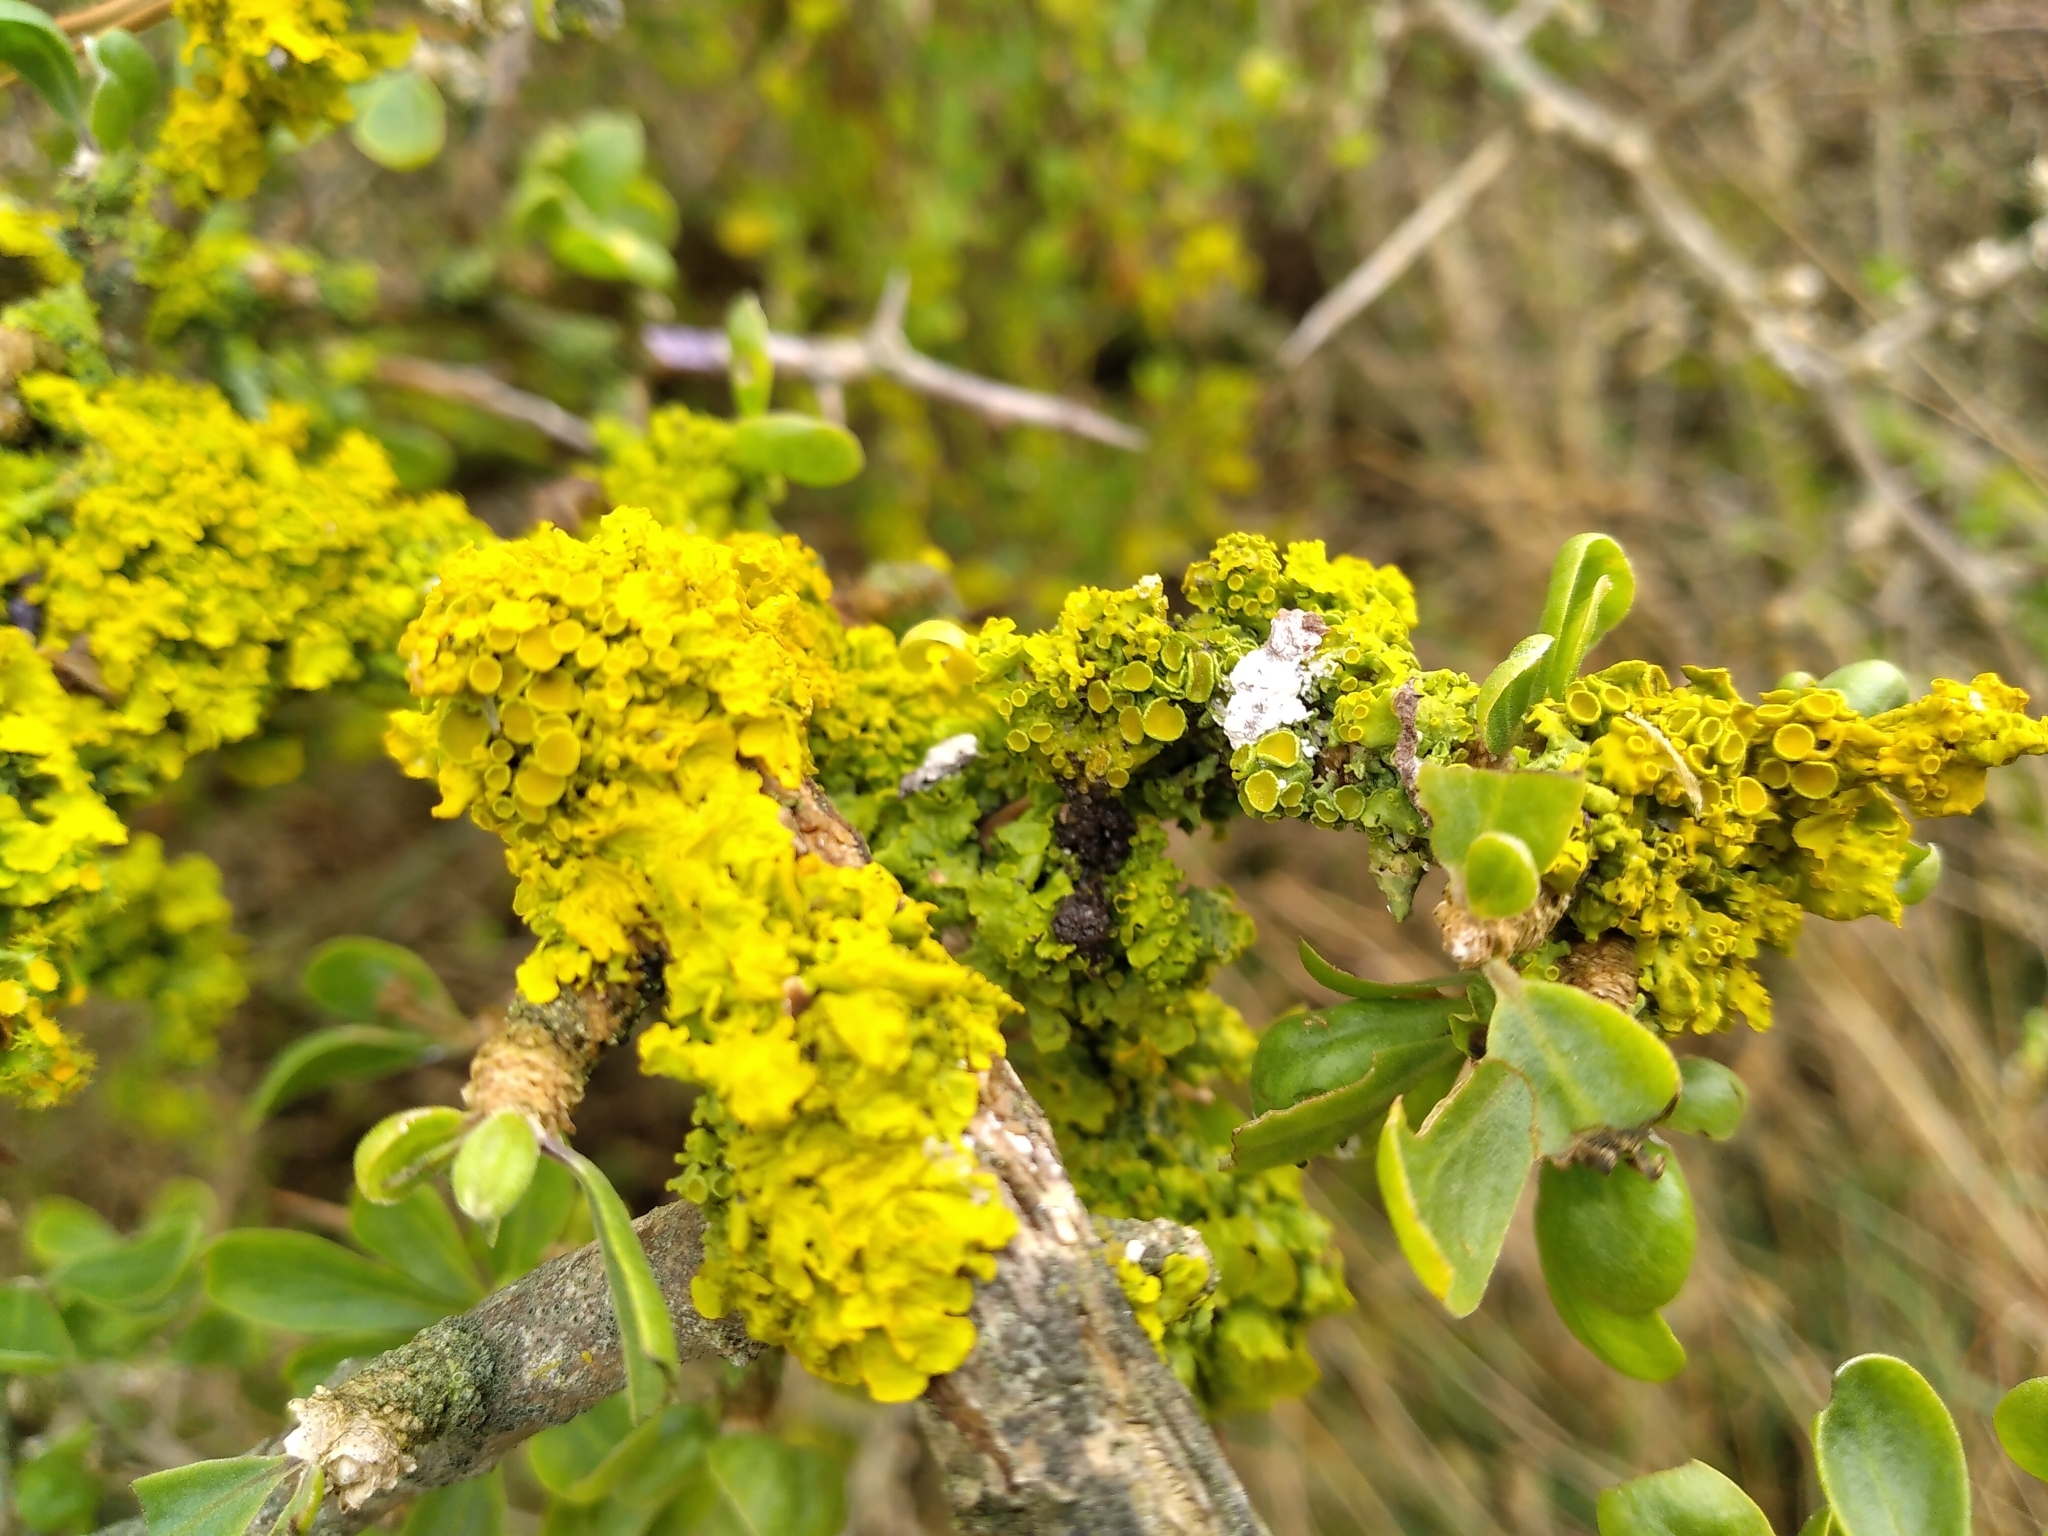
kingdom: Fungi
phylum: Ascomycota
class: Lecanoromycetes
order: Teloschistales
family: Teloschistaceae
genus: Xanthoria
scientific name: Xanthoria parietina
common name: Common orange lichen
